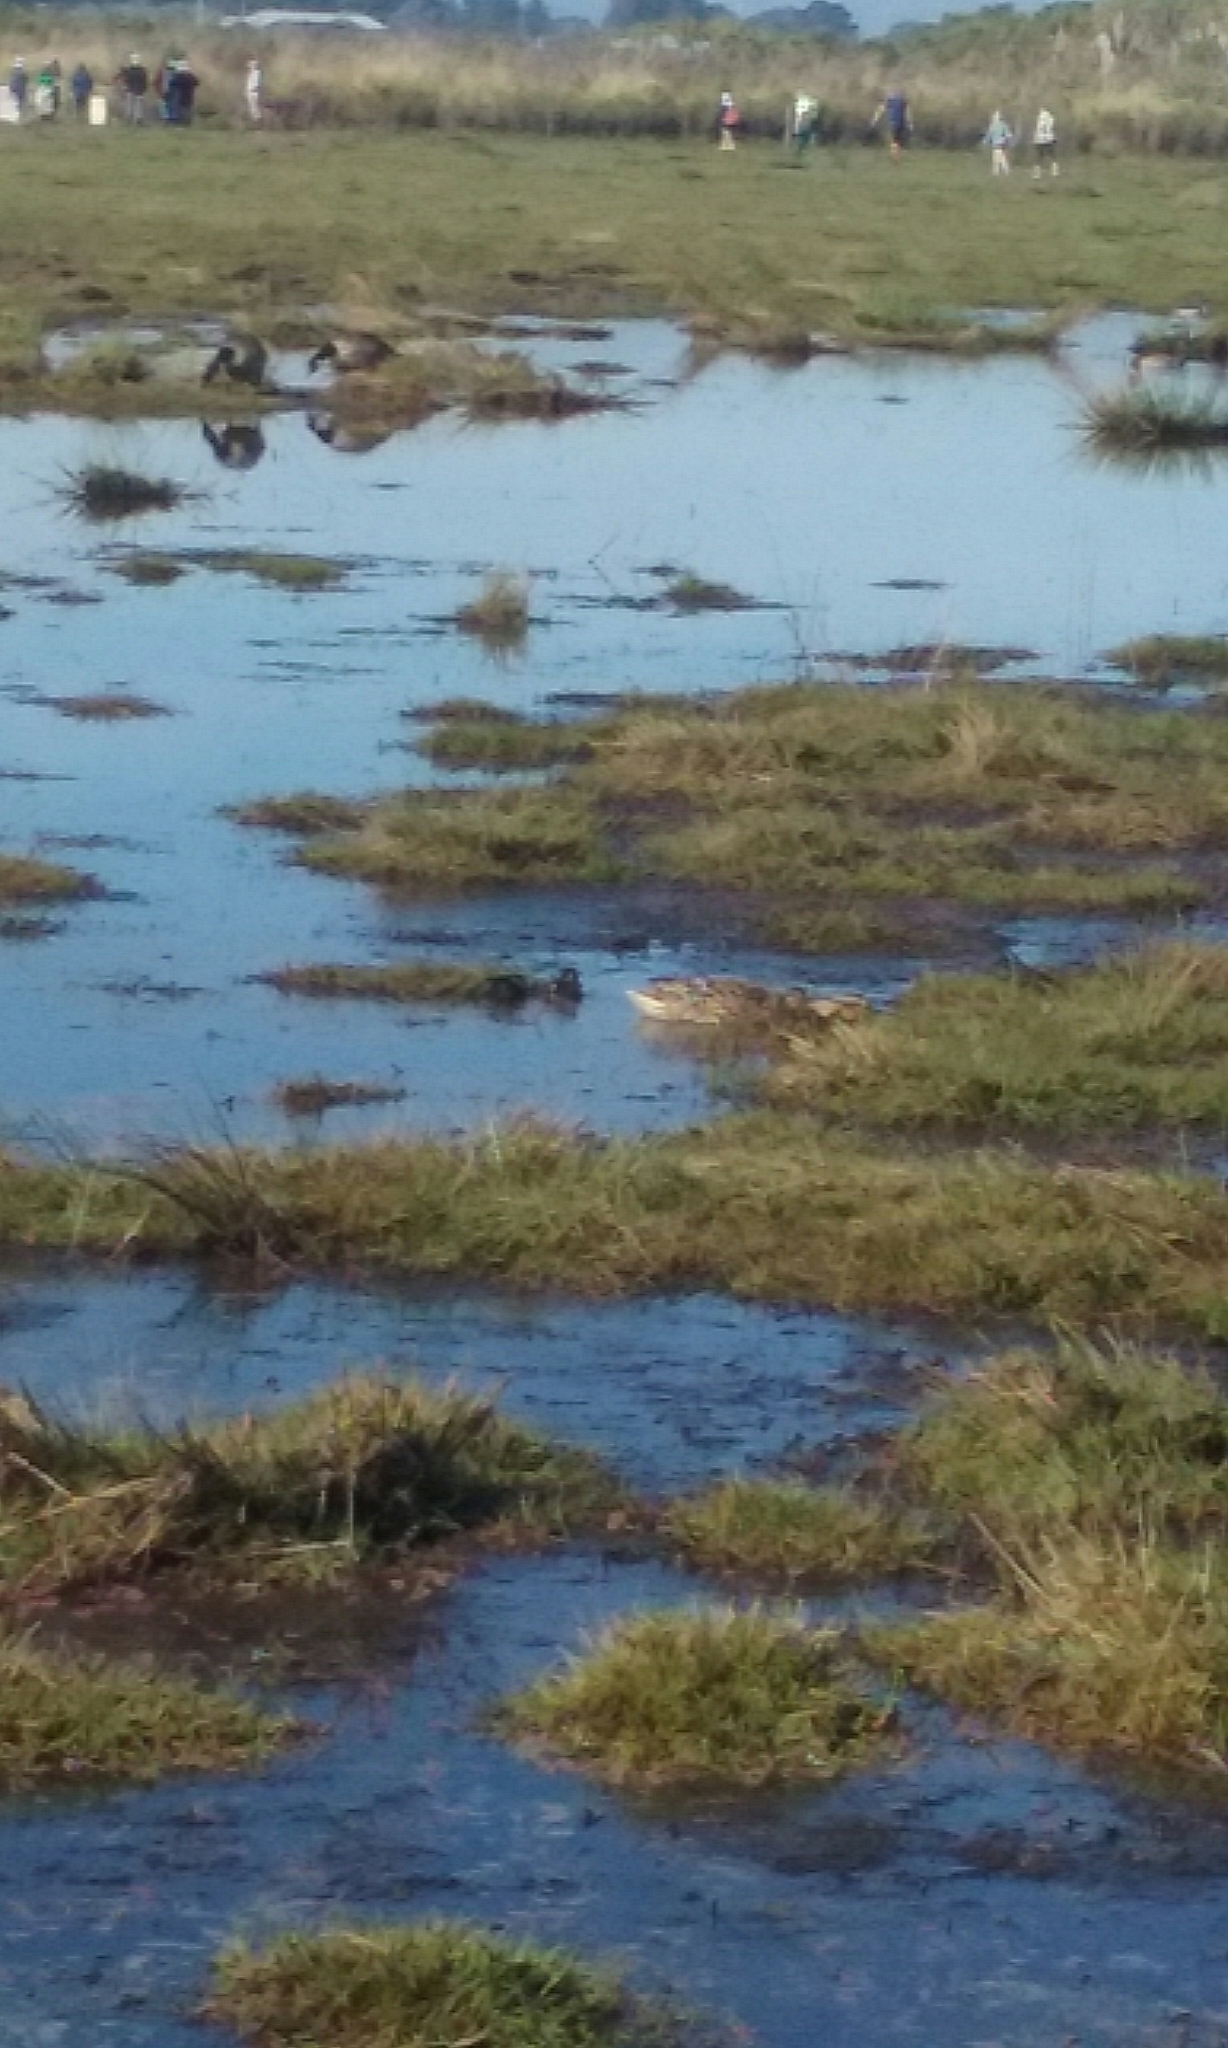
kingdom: Animalia
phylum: Chordata
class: Aves
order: Anseriformes
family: Anatidae
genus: Anas
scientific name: Anas platyrhynchos
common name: Mallard
